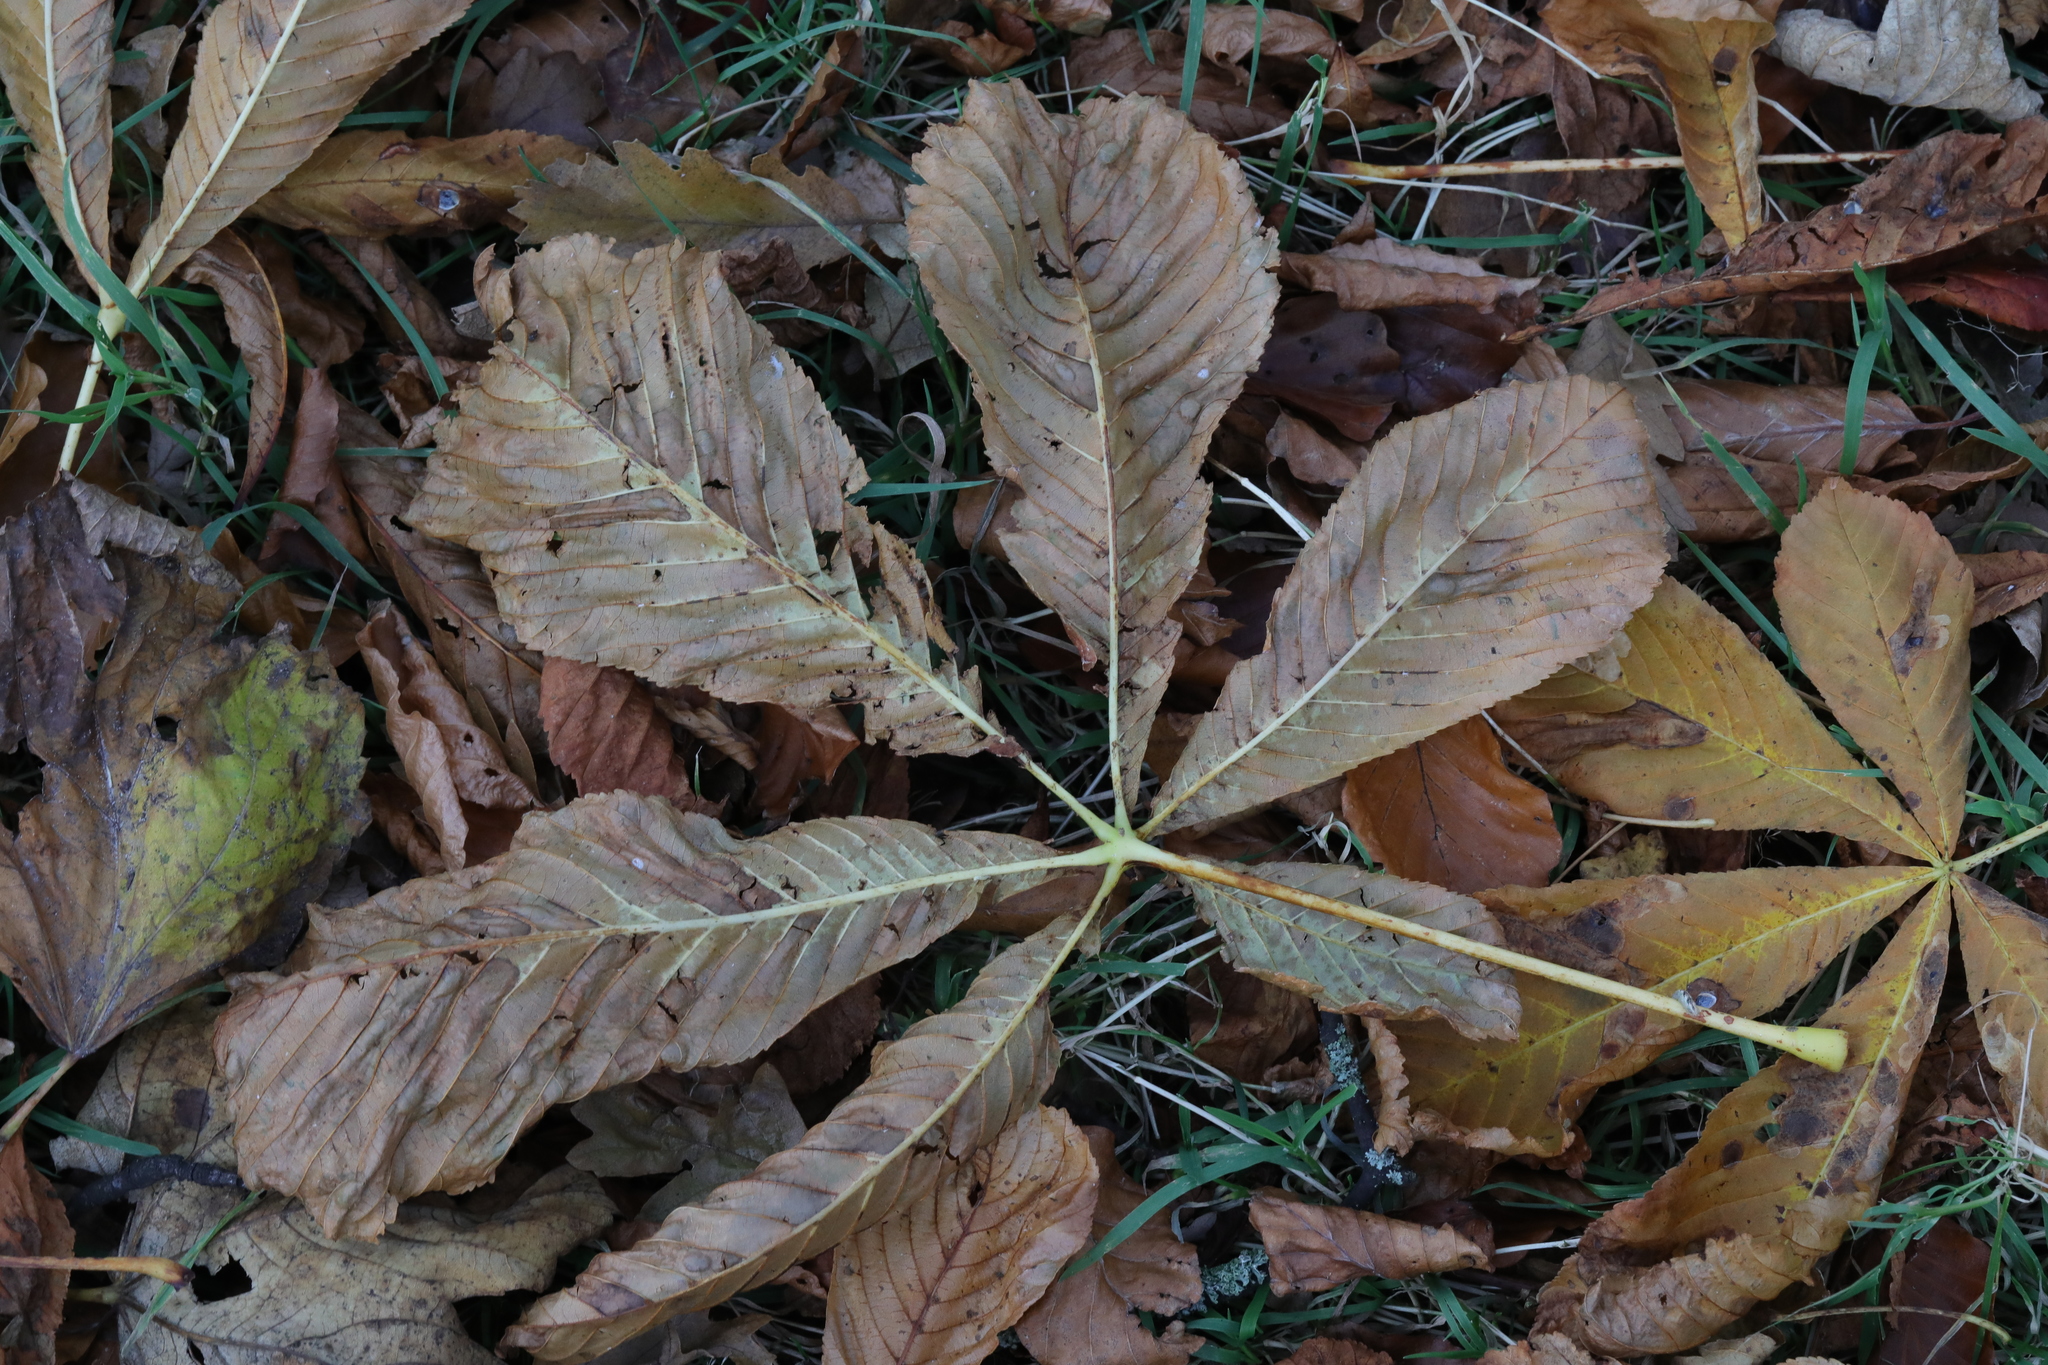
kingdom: Plantae
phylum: Tracheophyta
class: Magnoliopsida
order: Sapindales
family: Sapindaceae
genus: Aesculus
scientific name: Aesculus hippocastanum
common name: Horse-chestnut
